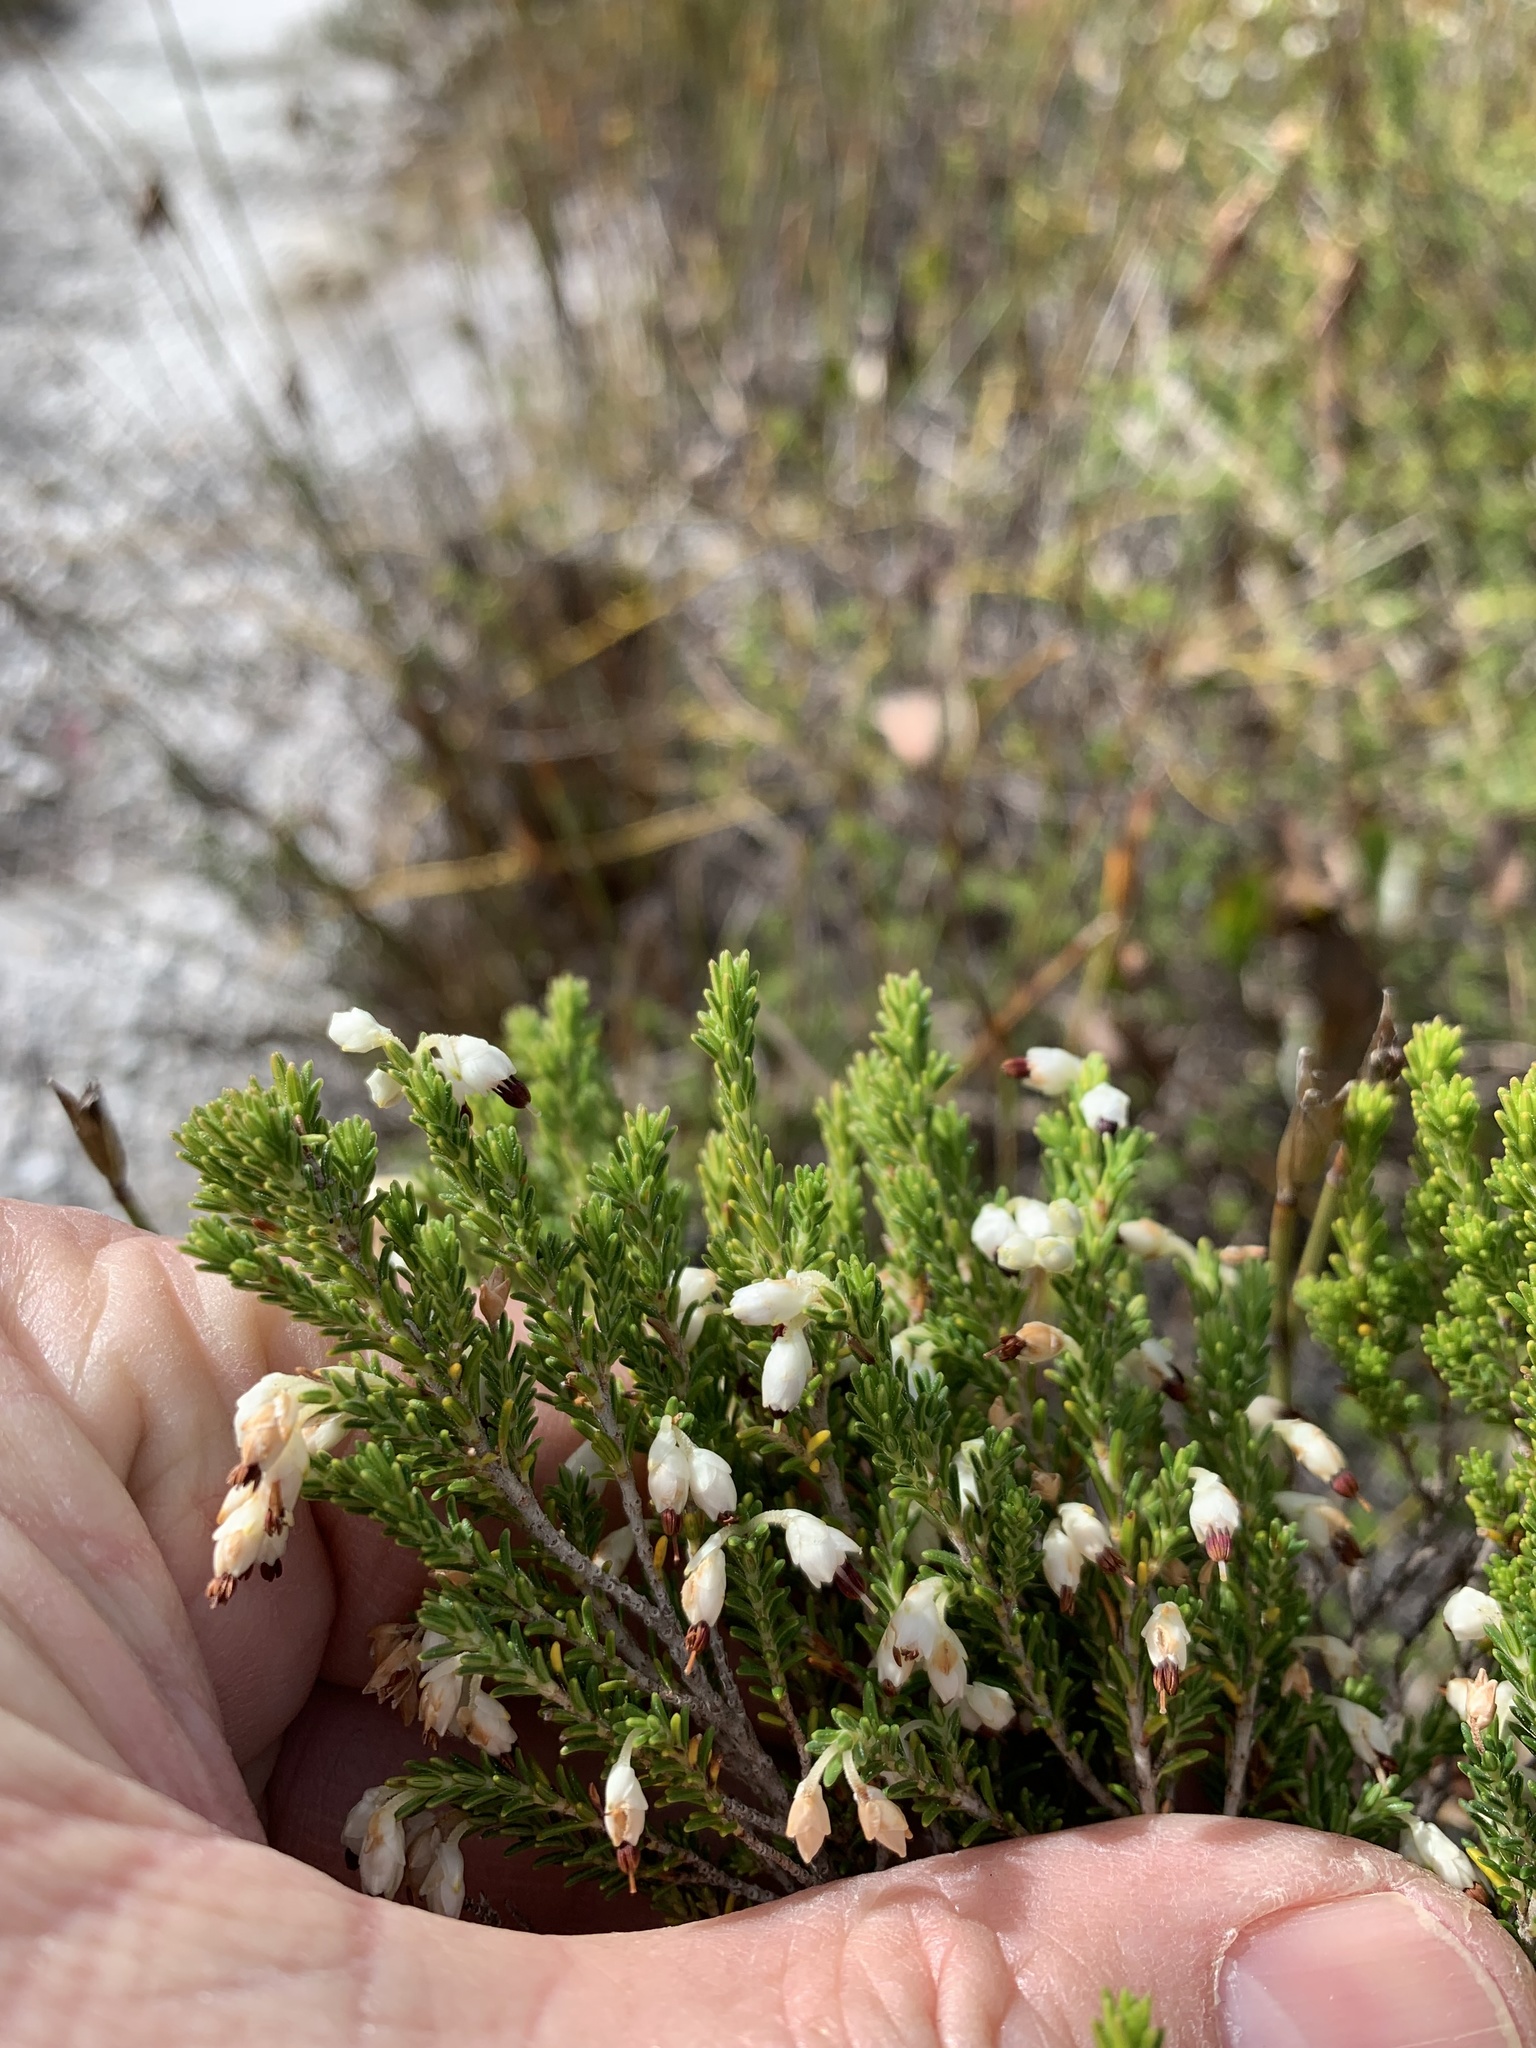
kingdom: Plantae
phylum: Tracheophyta
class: Magnoliopsida
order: Ericales
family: Ericaceae
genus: Erica
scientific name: Erica imbricata
